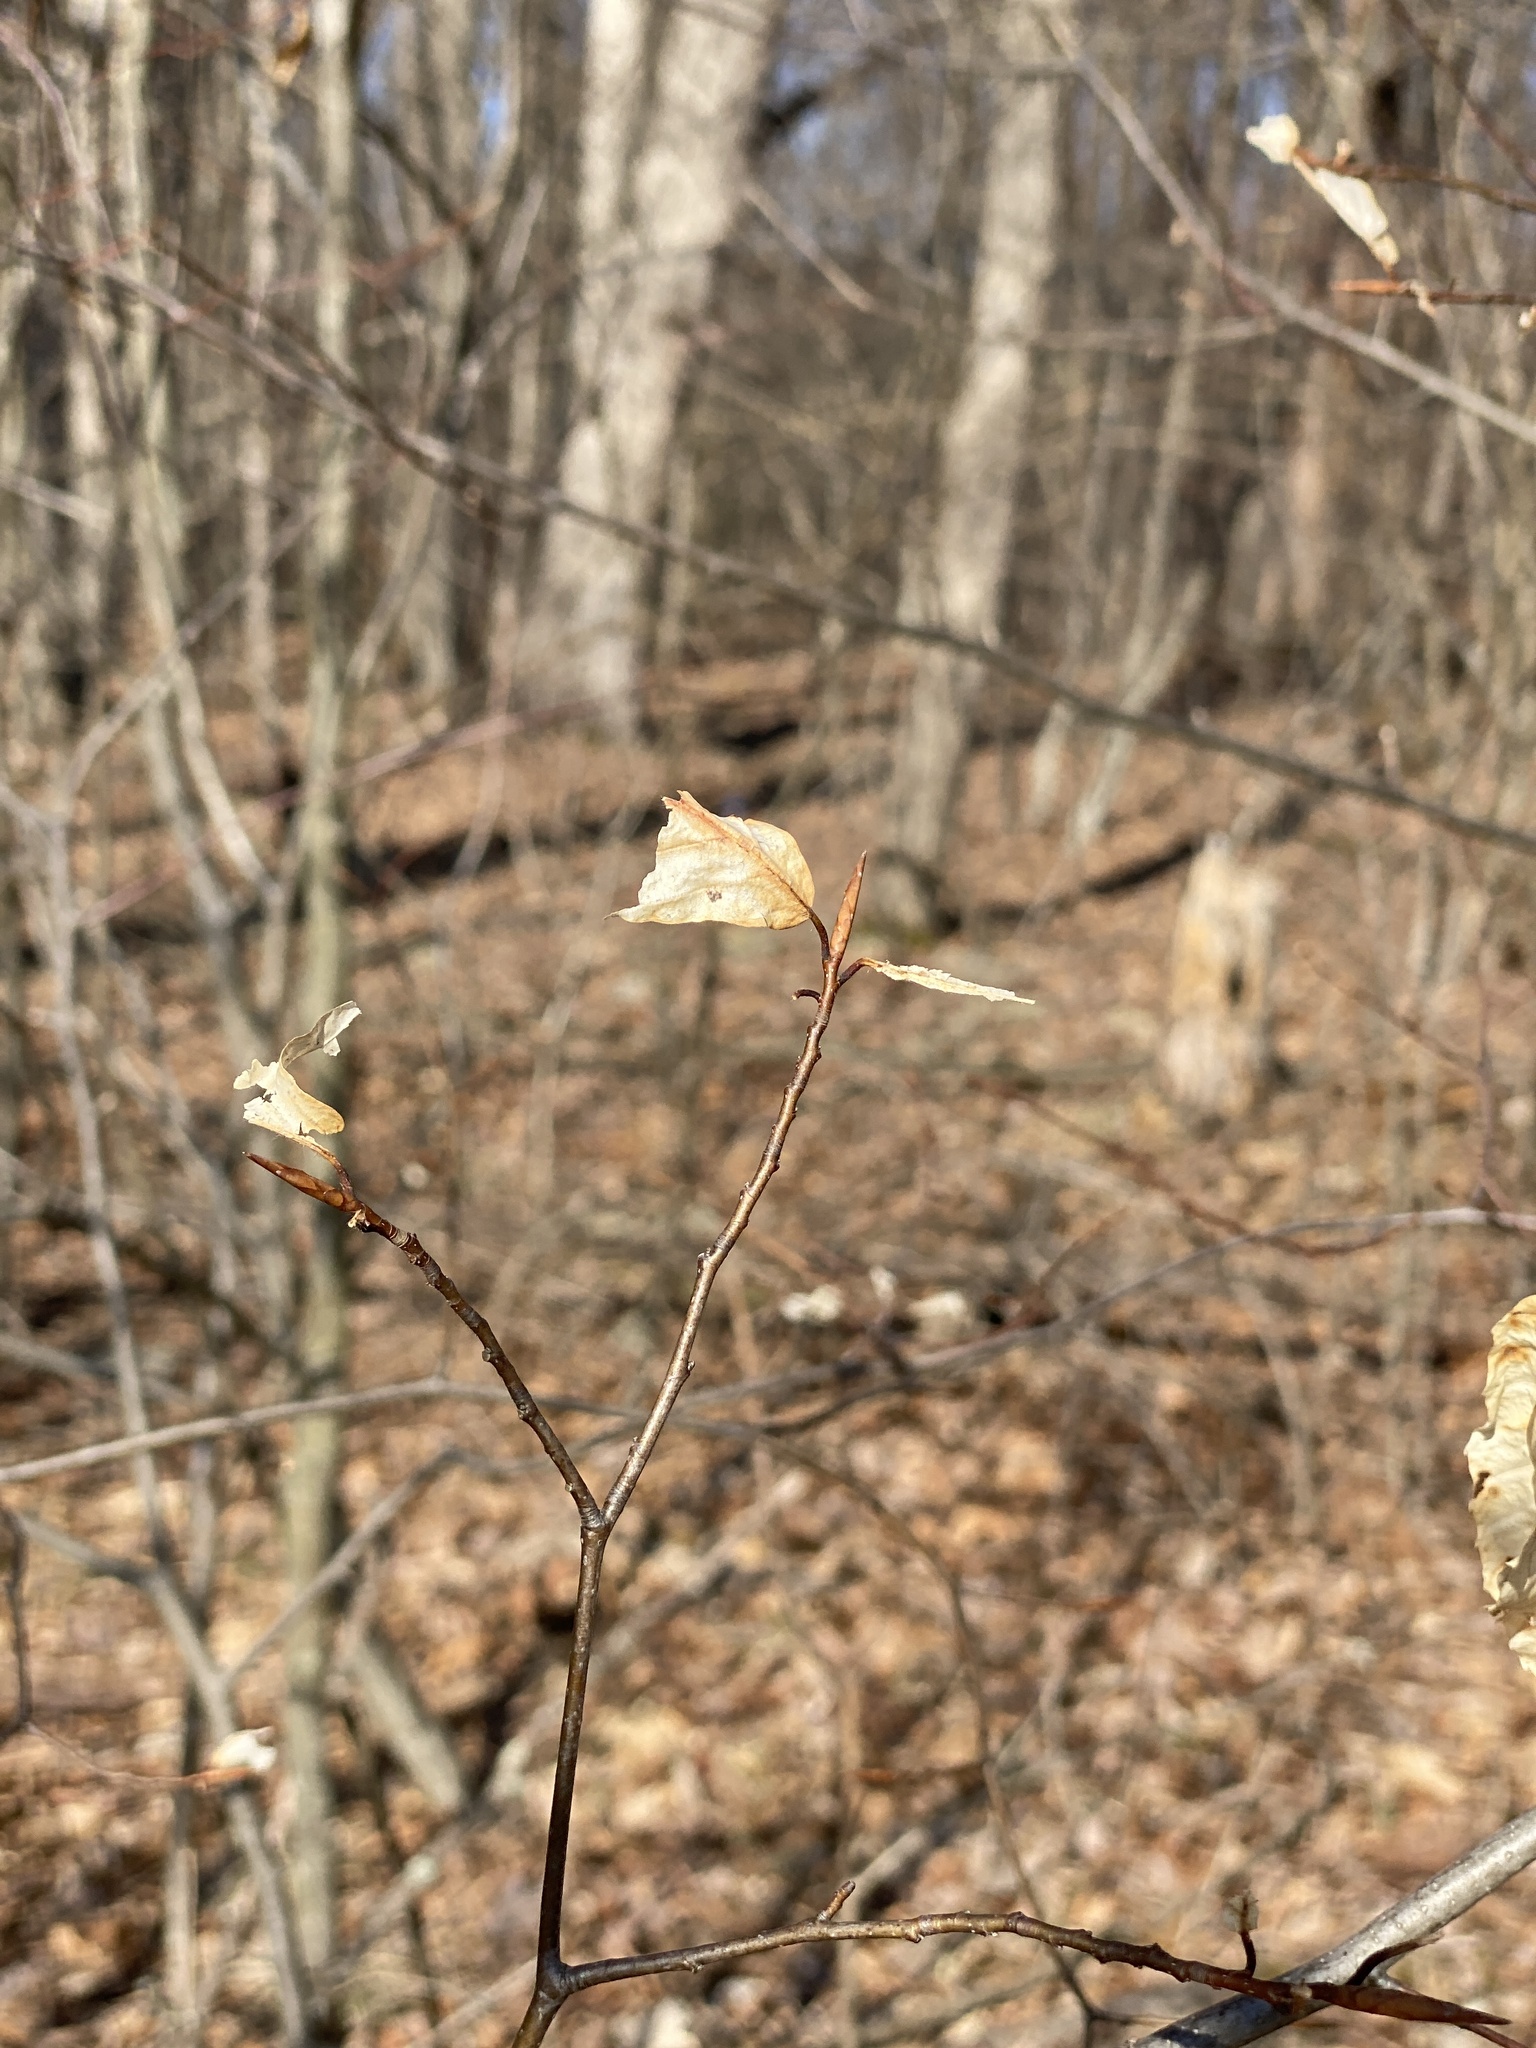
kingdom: Plantae
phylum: Tracheophyta
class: Magnoliopsida
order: Fagales
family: Fagaceae
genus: Fagus
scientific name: Fagus grandifolia
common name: American beech
